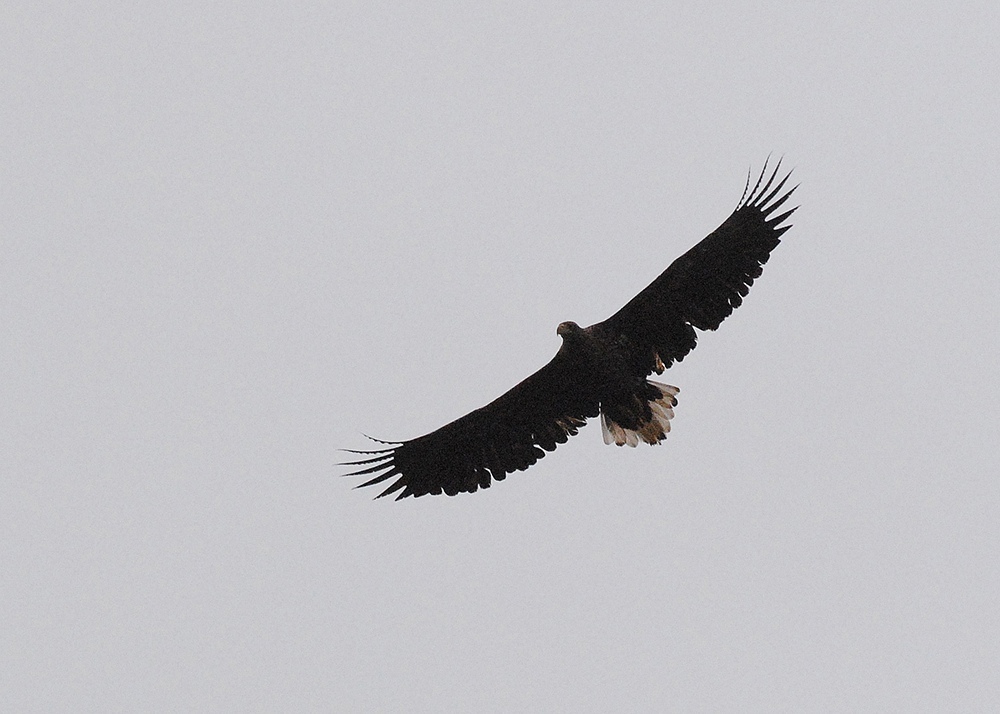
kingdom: Animalia
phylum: Chordata
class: Aves
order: Accipitriformes
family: Accipitridae
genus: Haliaeetus
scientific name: Haliaeetus albicilla
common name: White-tailed eagle
